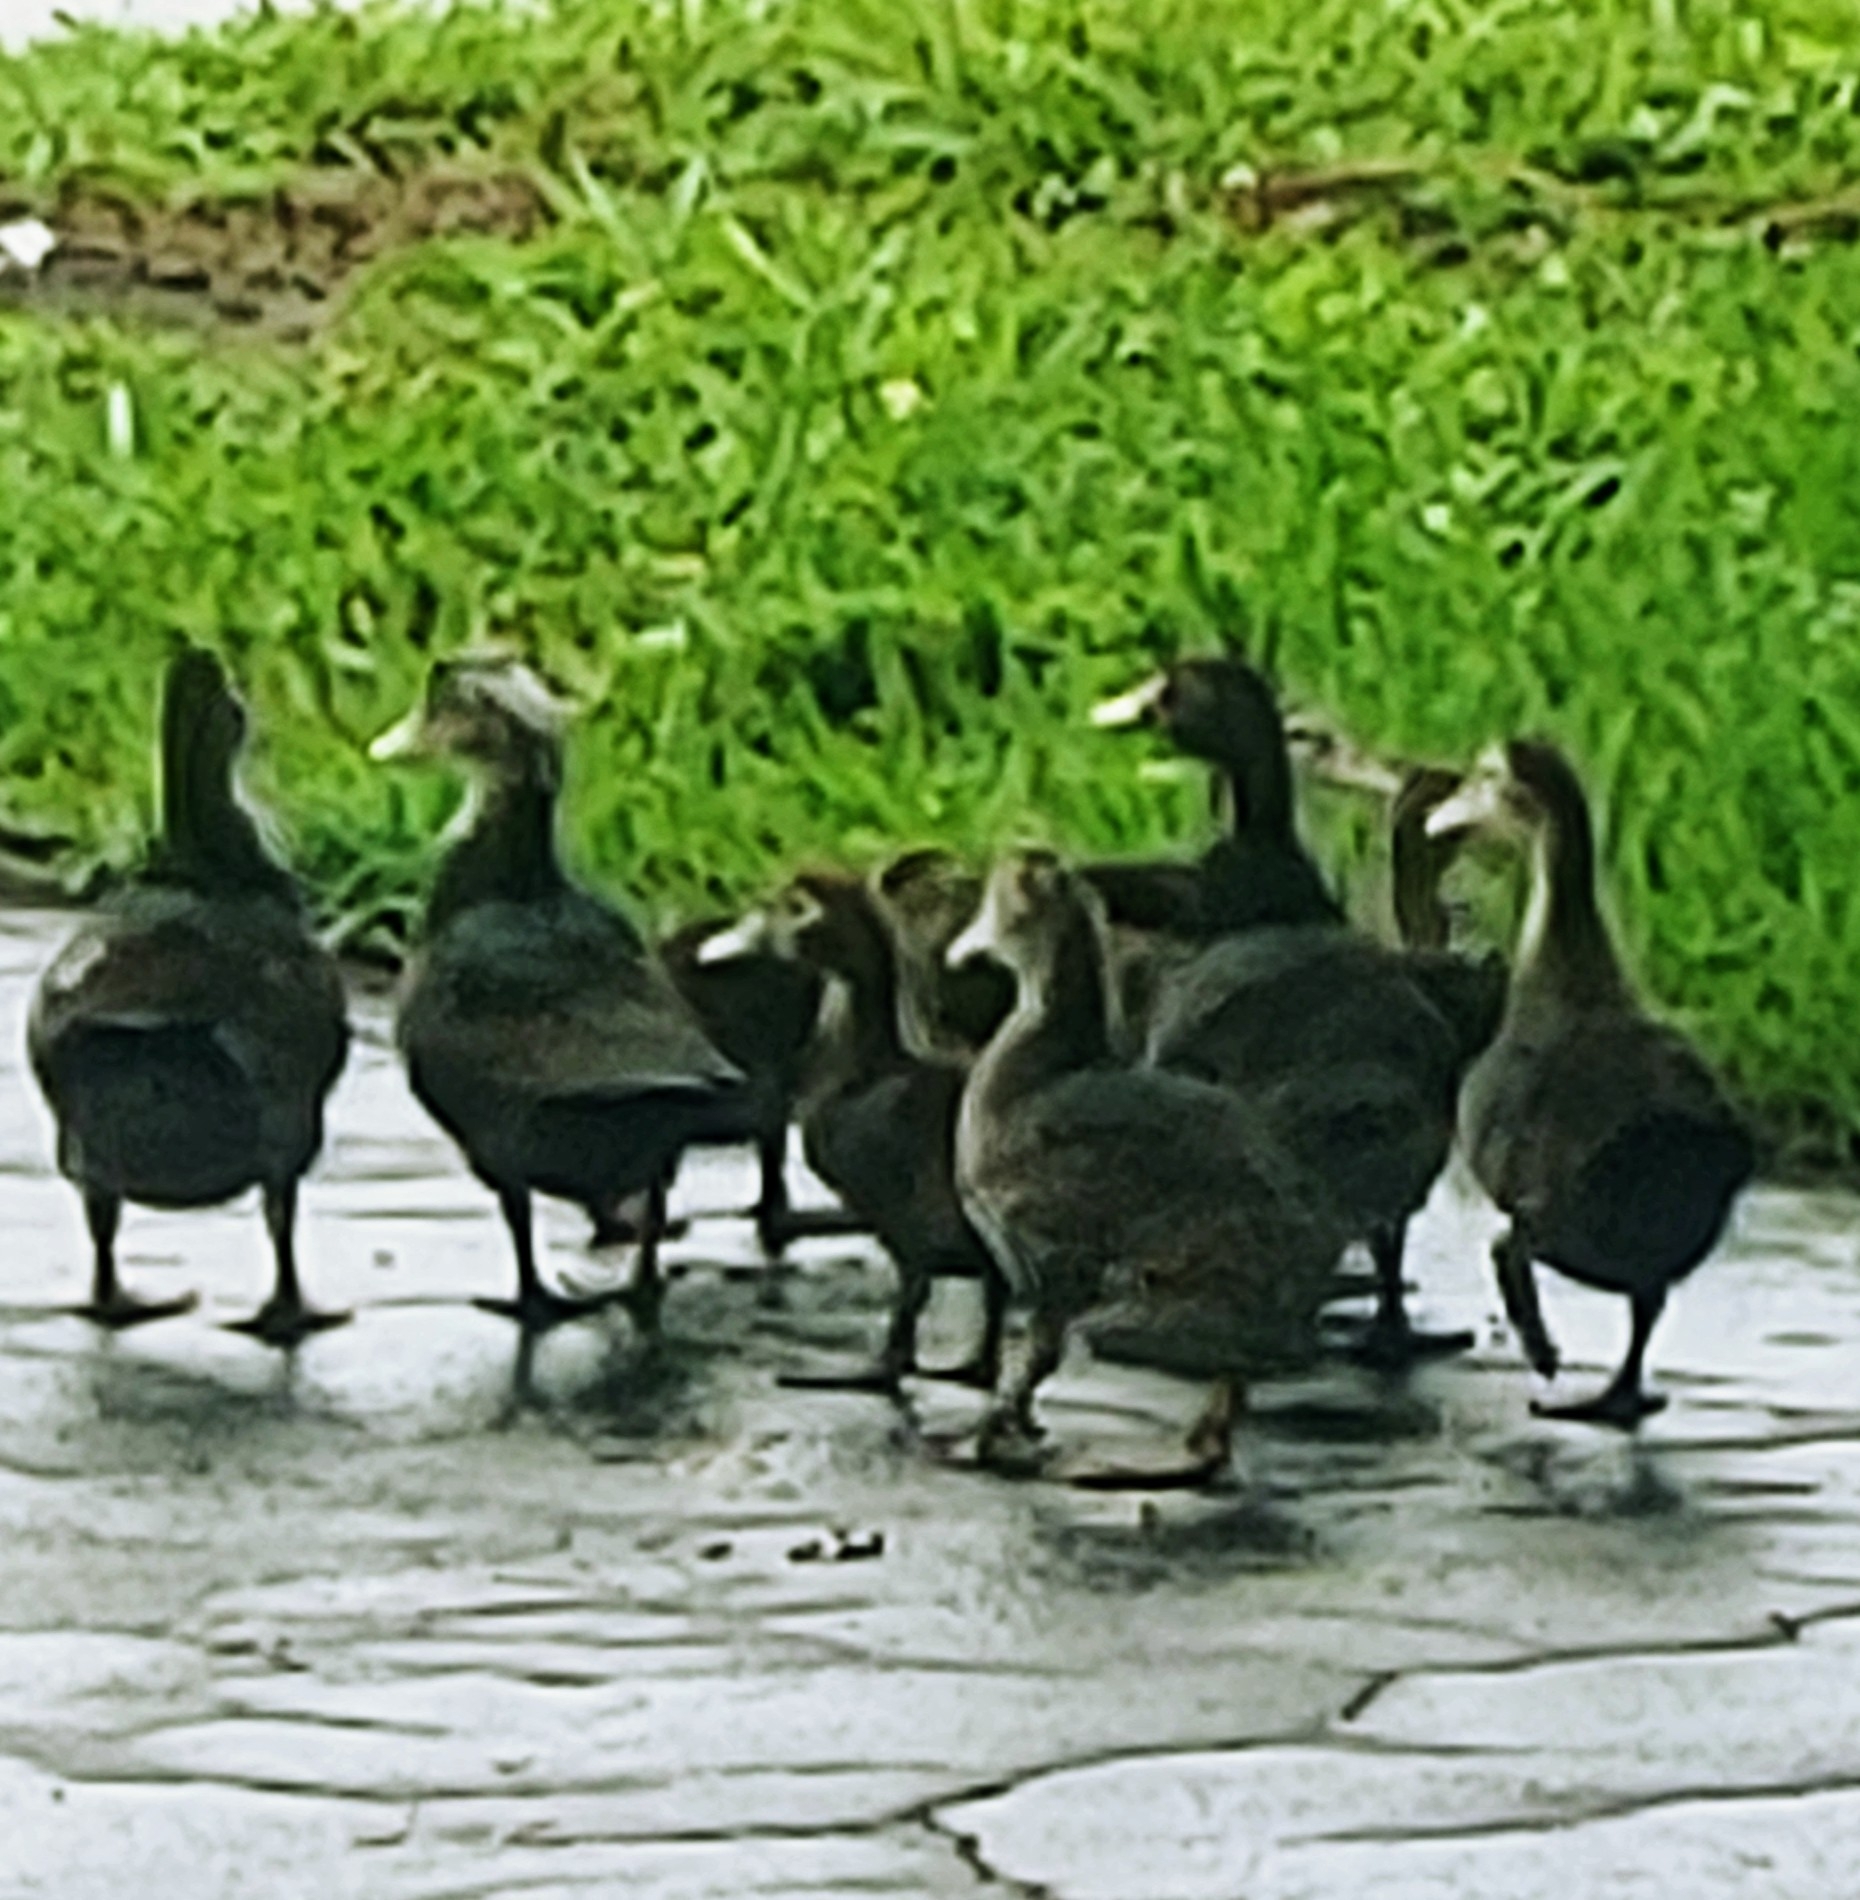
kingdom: Animalia
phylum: Chordata
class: Aves
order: Anseriformes
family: Anatidae
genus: Cairina
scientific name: Cairina moschata
